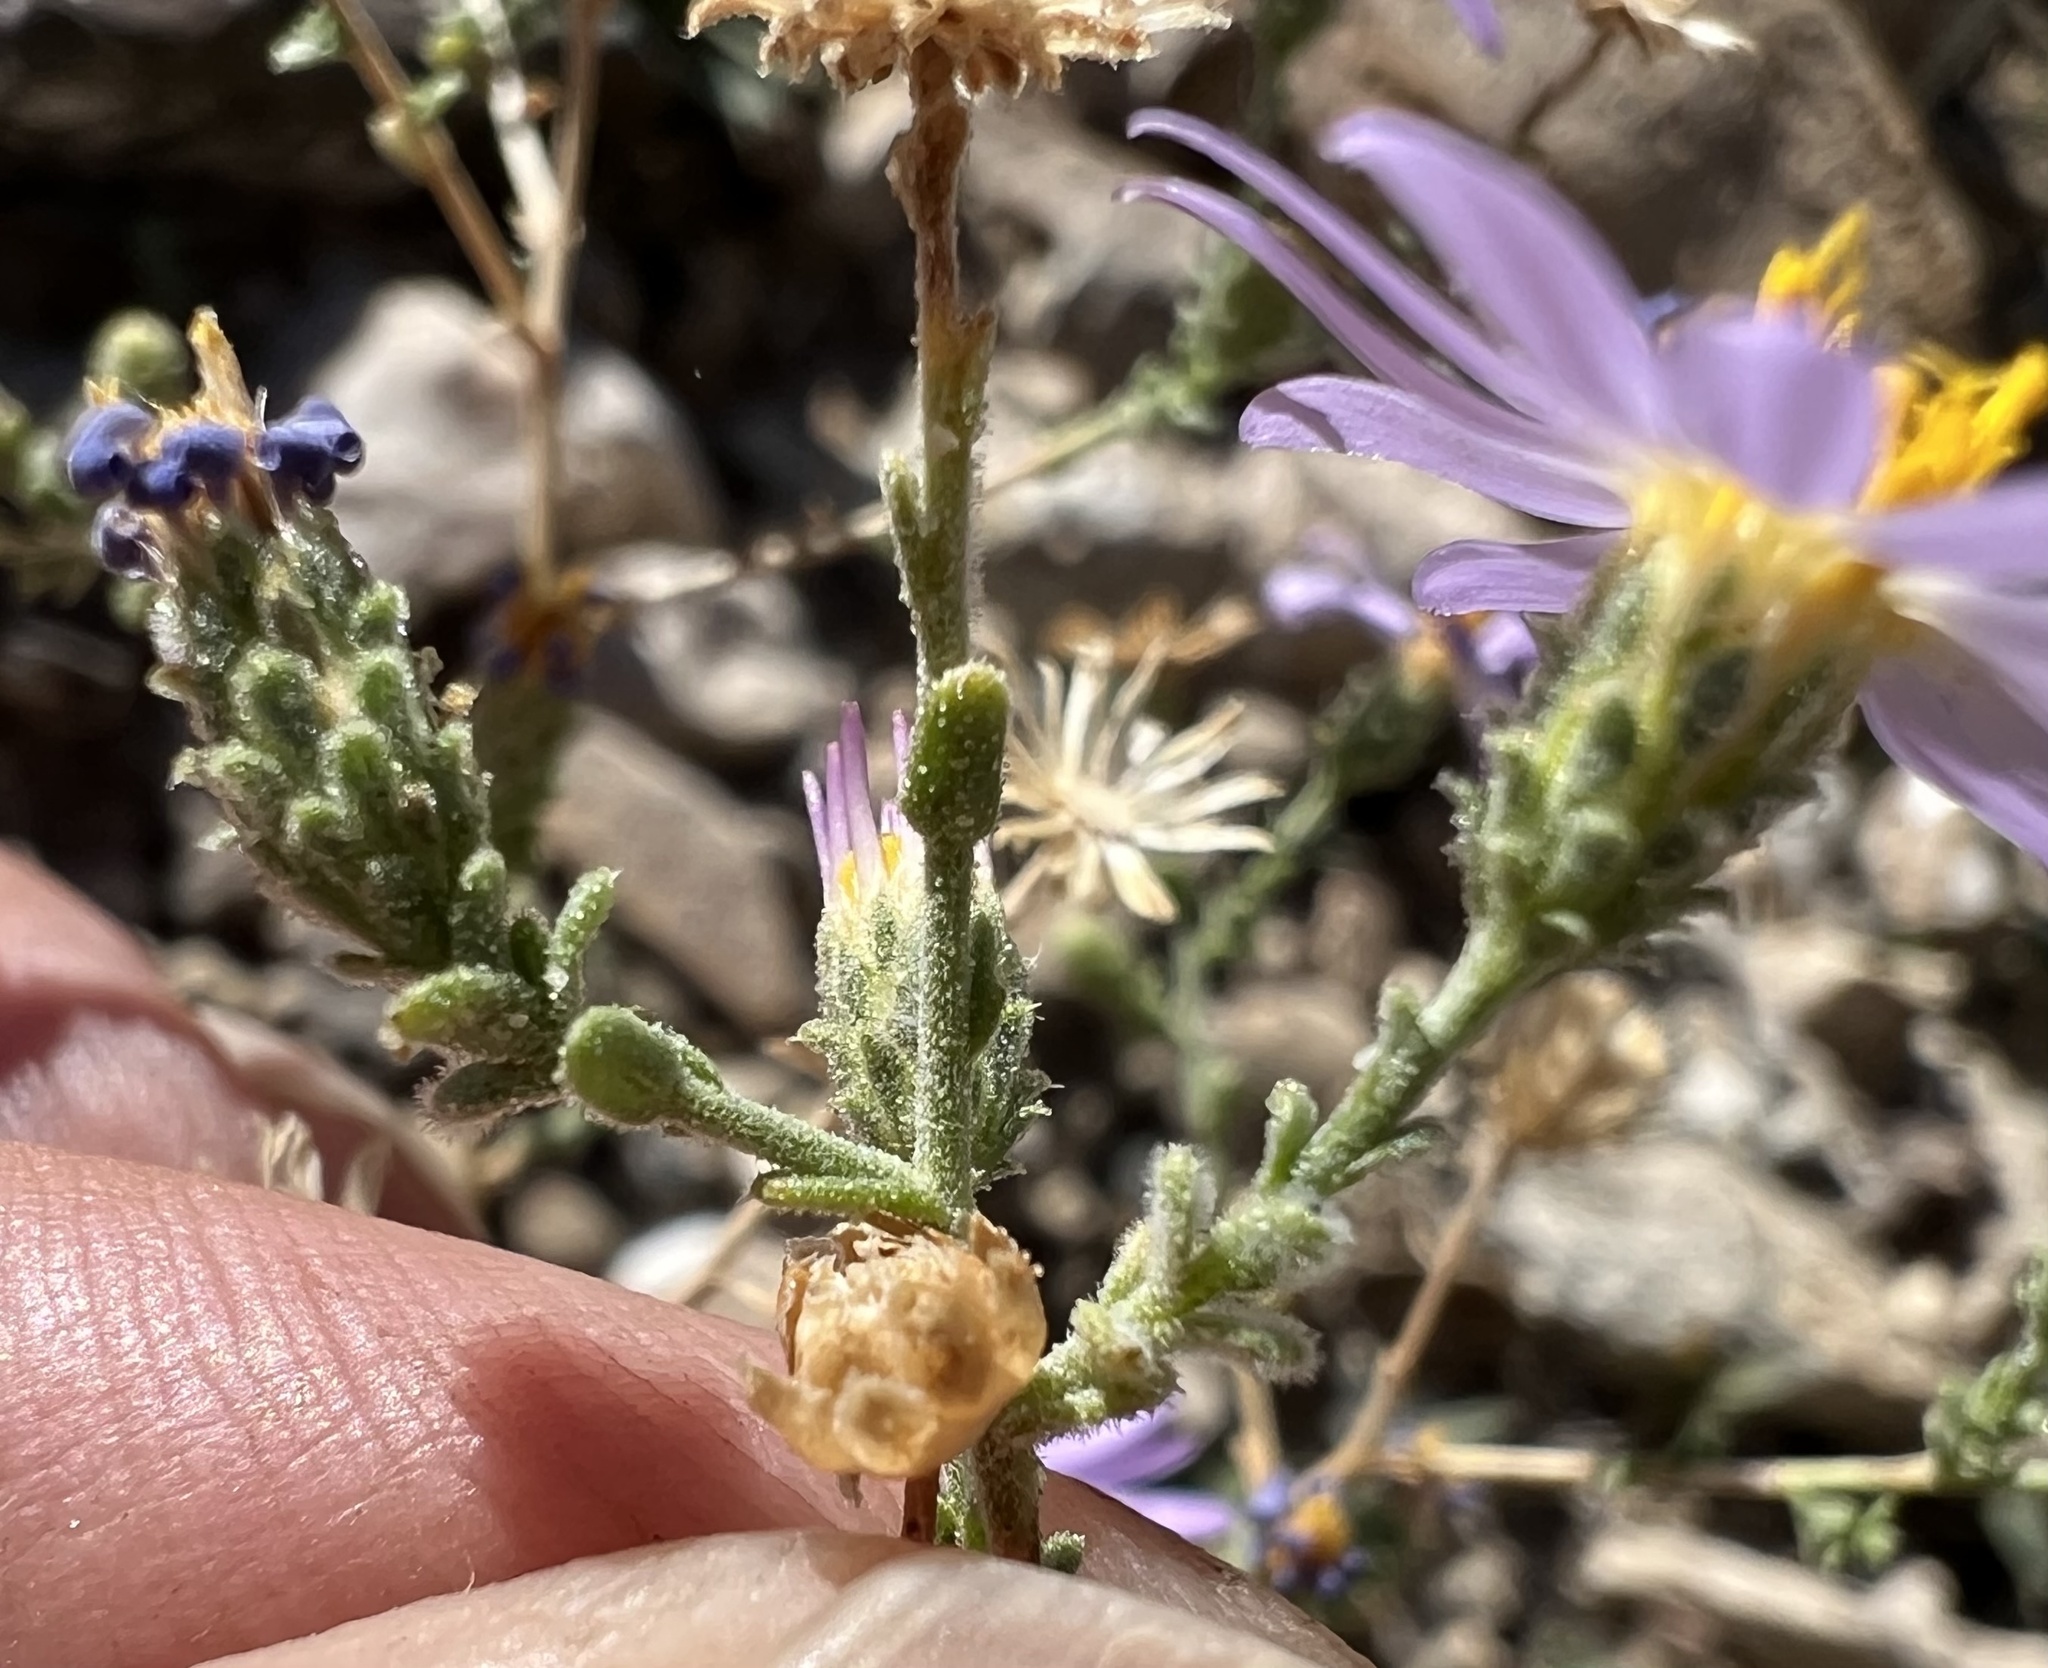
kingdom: Plantae
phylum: Tracheophyta
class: Magnoliopsida
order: Asterales
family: Asteraceae
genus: Dieteria
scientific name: Dieteria canescens
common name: Hoary-aster
